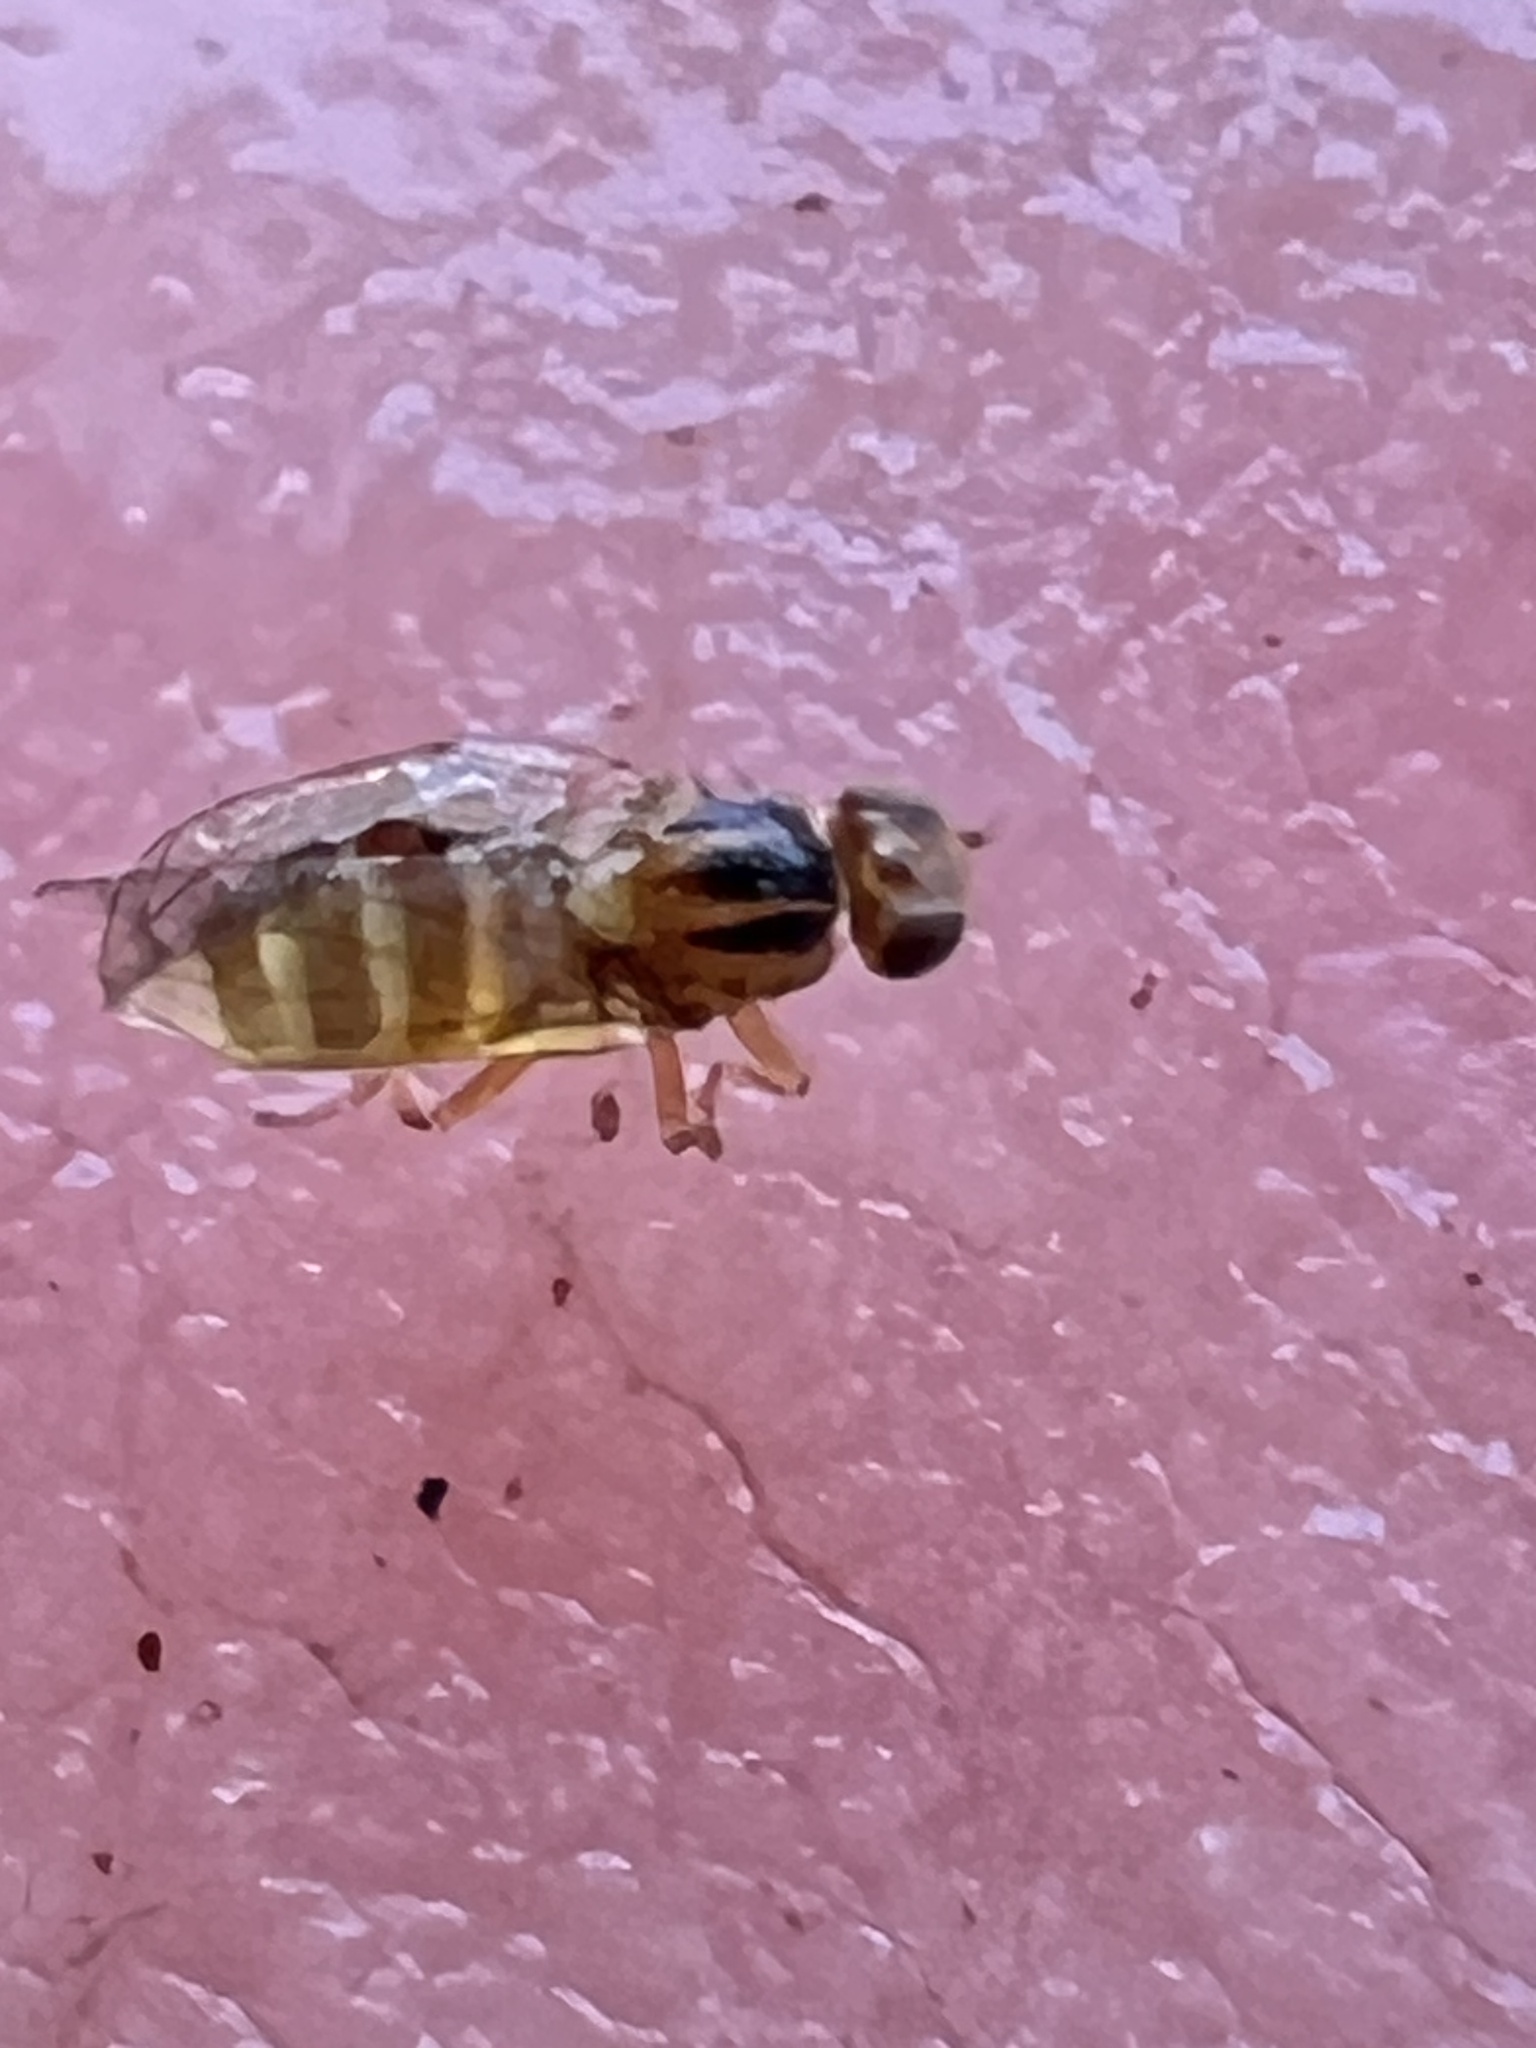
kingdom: Animalia
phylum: Arthropoda
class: Insecta
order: Diptera
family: Chloropidae
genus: Aphanotrigonum
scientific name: Aphanotrigonum huttoni
